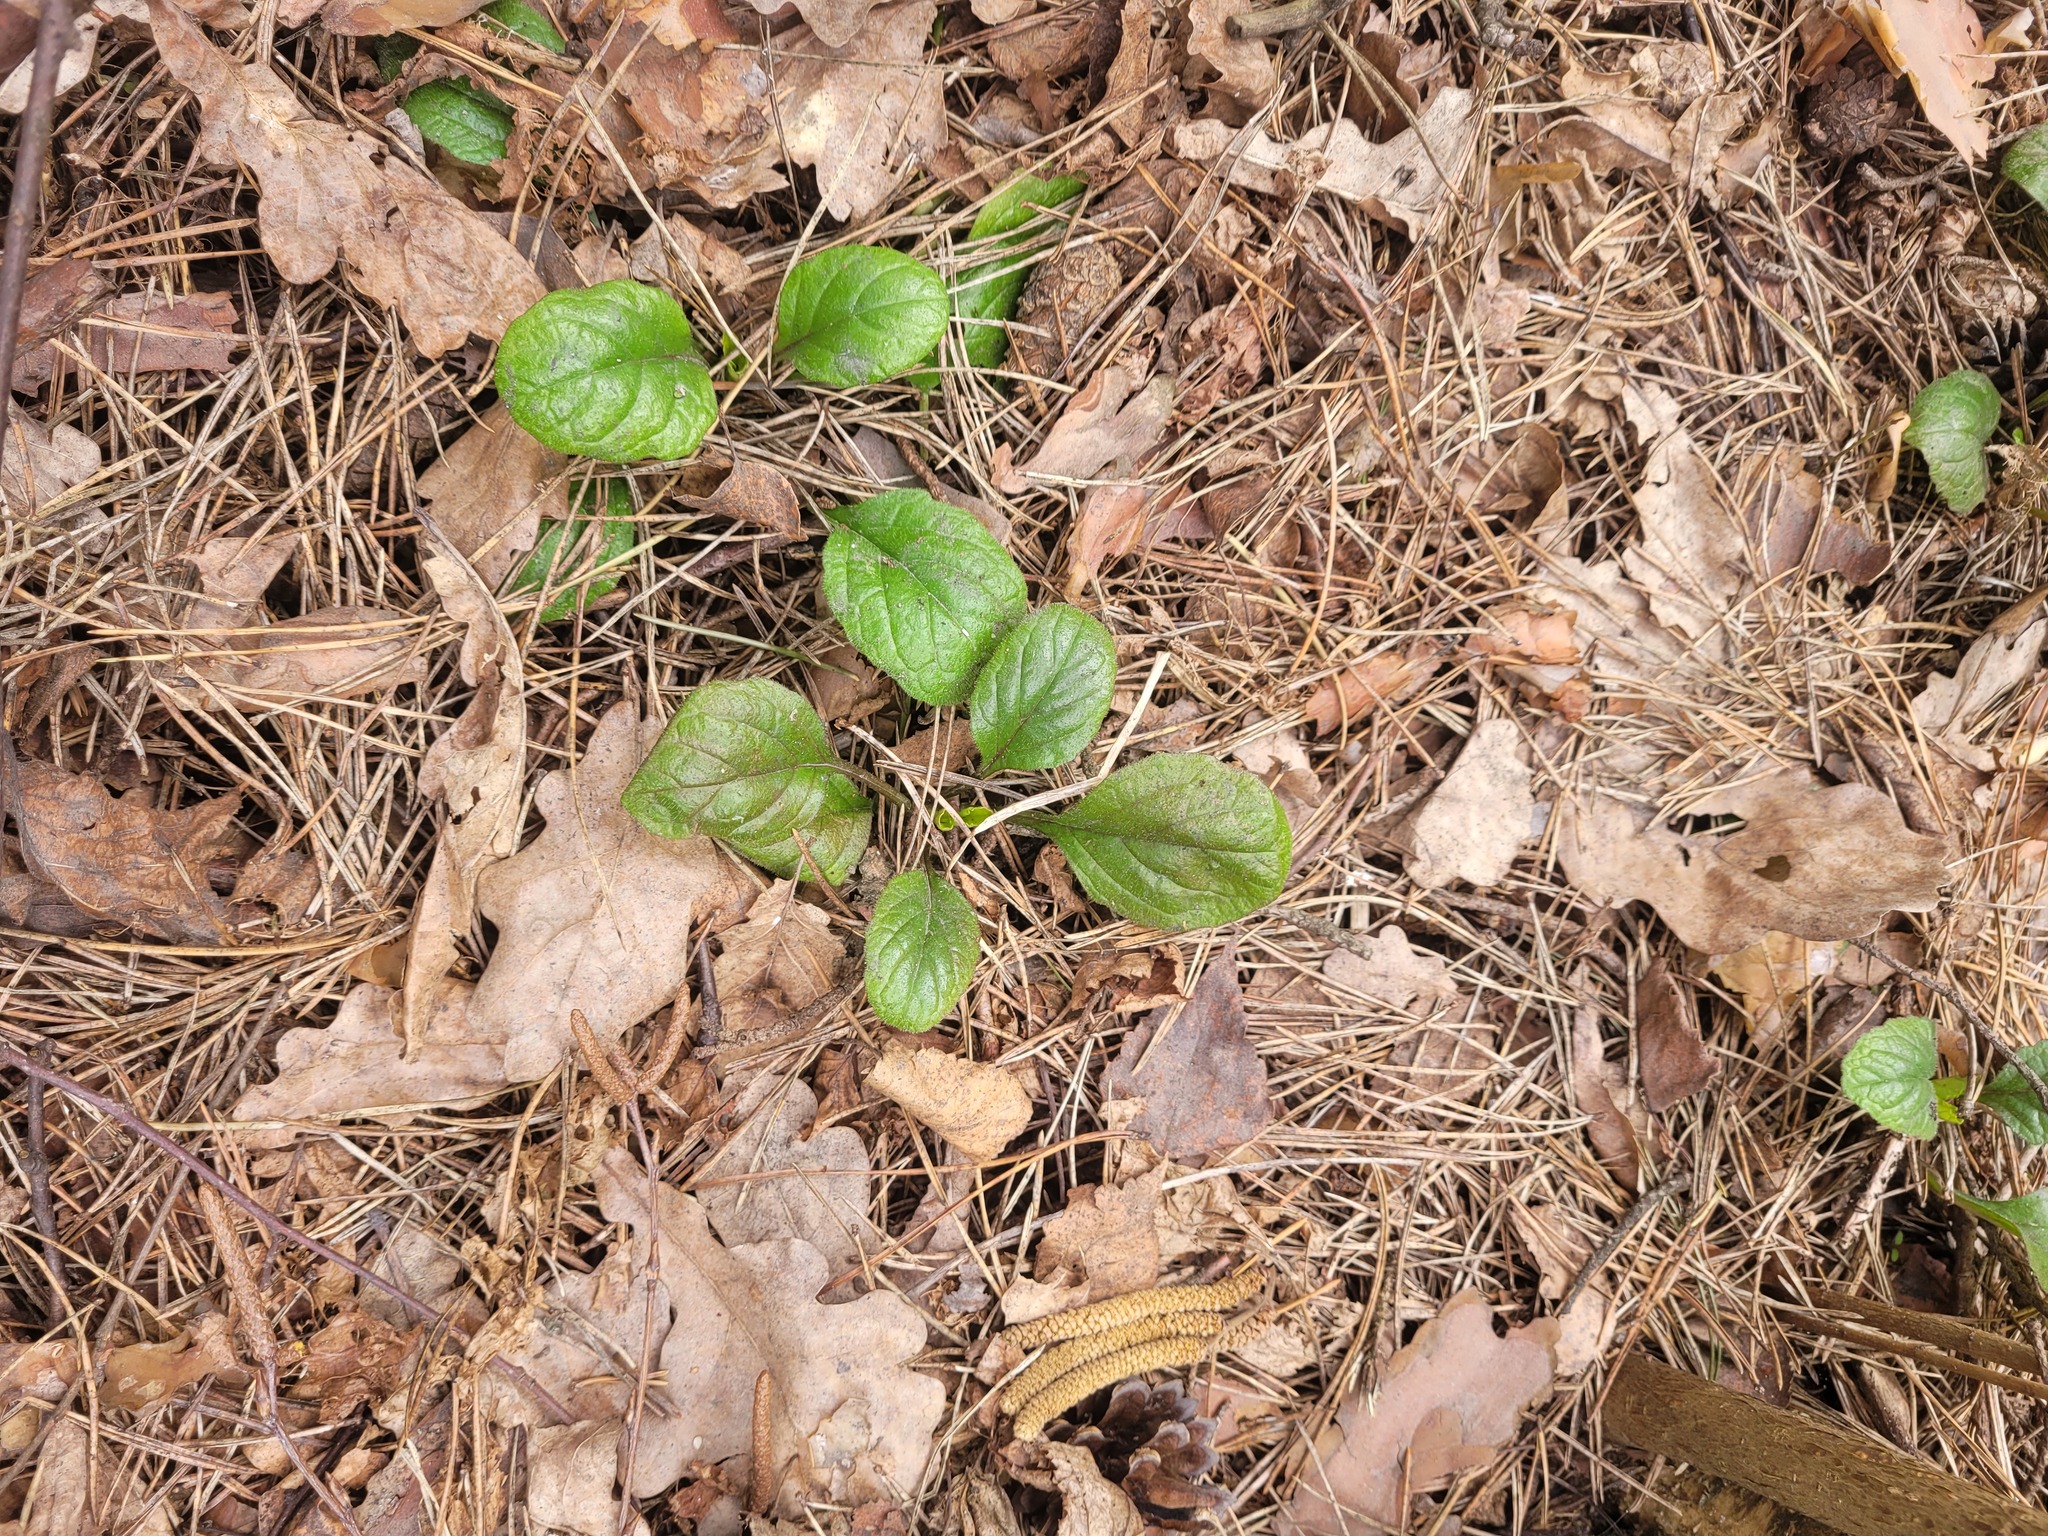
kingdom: Plantae
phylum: Tracheophyta
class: Magnoliopsida
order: Lamiales
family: Lamiaceae
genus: Ajuga
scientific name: Ajuga reptans
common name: Bugle
